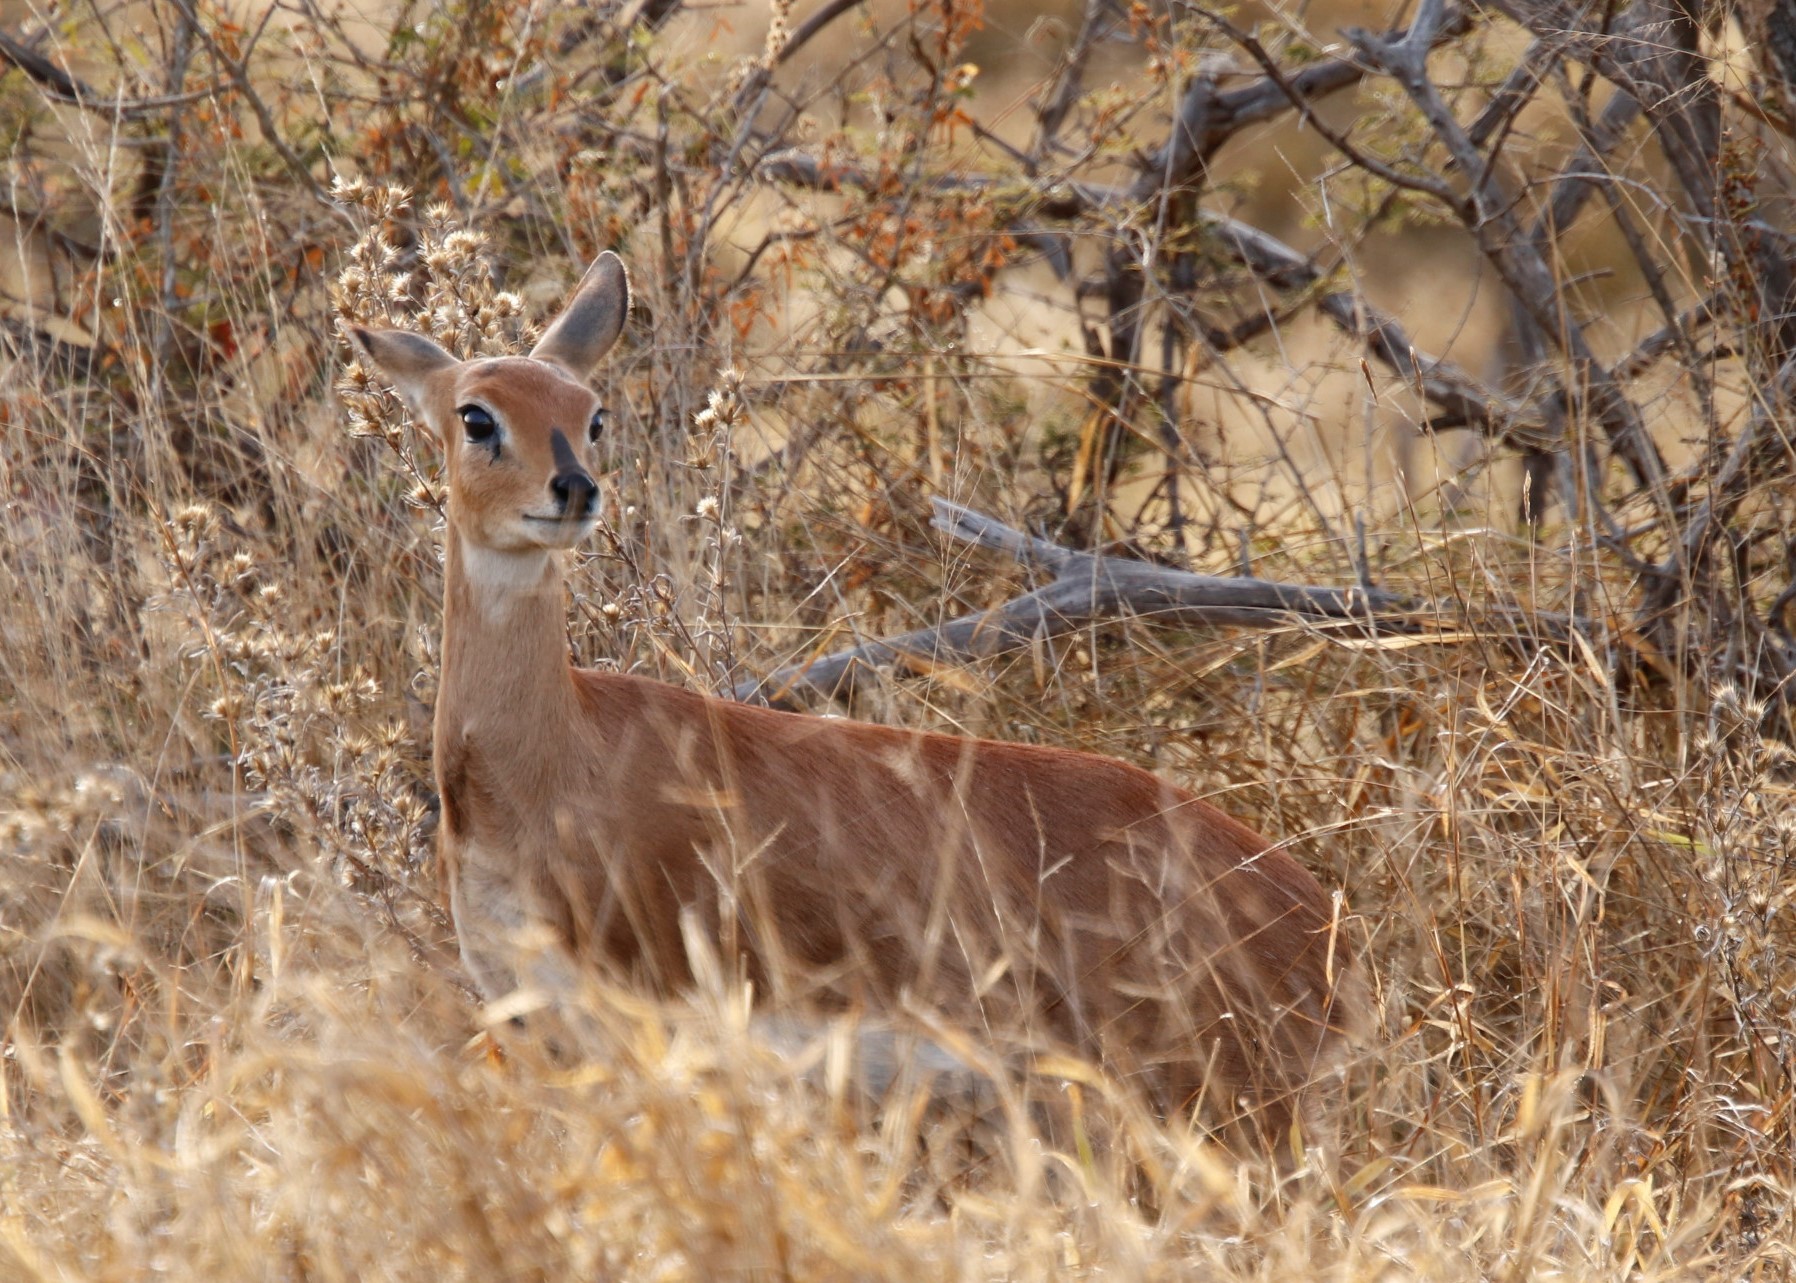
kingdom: Animalia
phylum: Chordata
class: Mammalia
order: Artiodactyla
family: Bovidae
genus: Raphicerus
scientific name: Raphicerus campestris
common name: Steenbok
